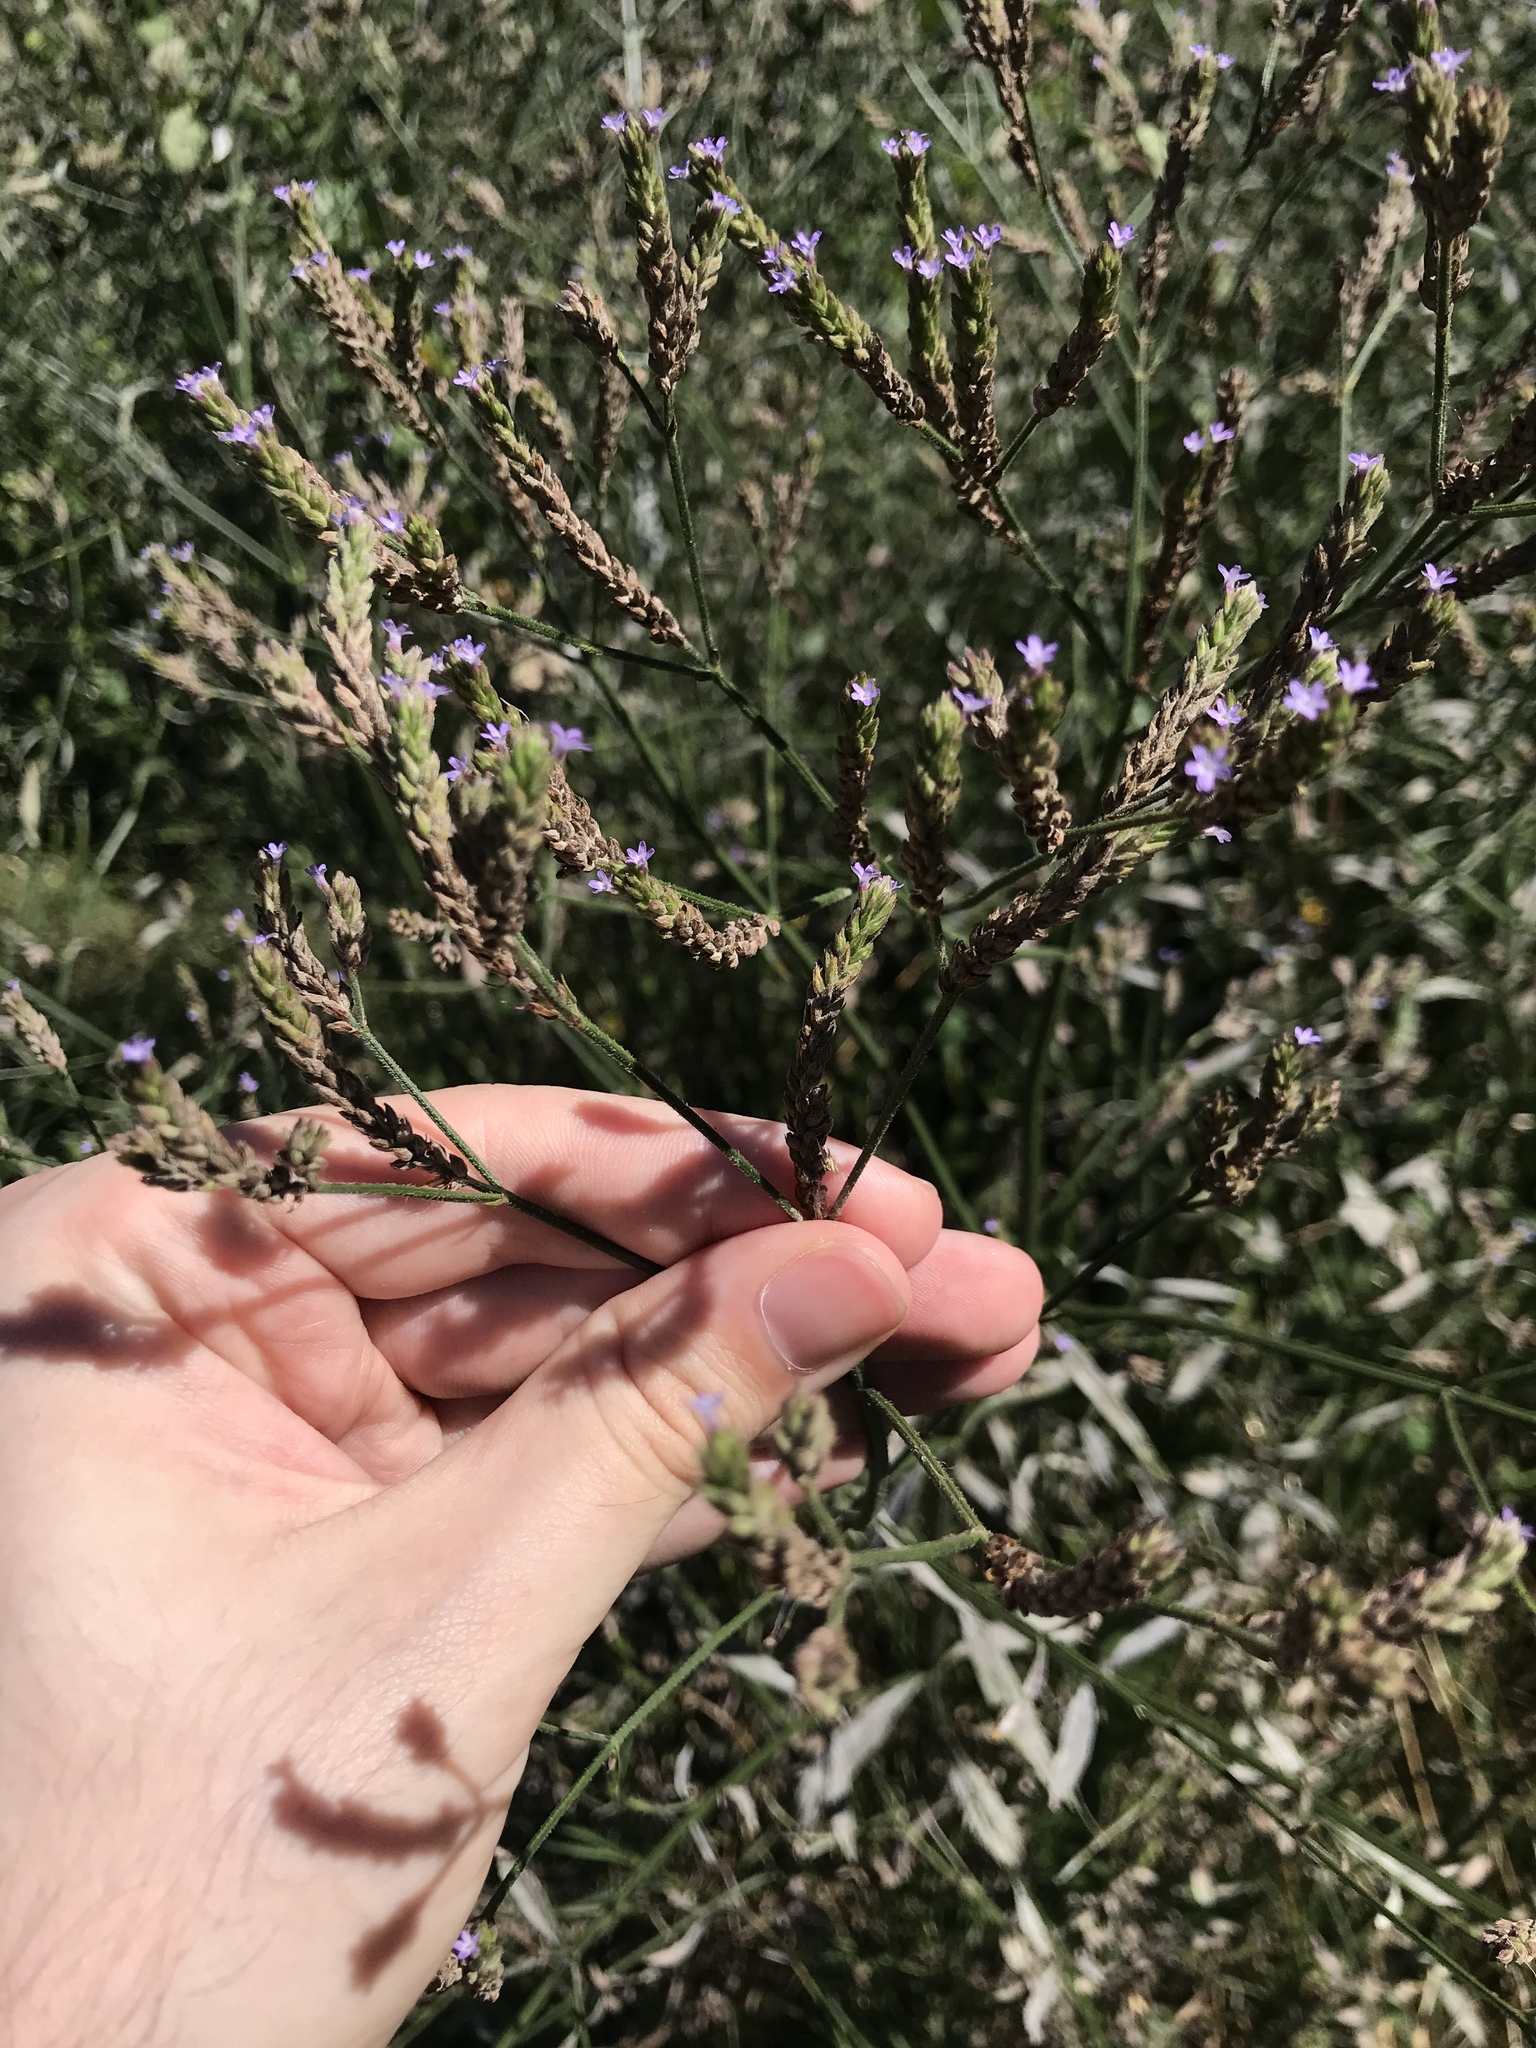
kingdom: Plantae
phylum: Tracheophyta
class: Magnoliopsida
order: Lamiales
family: Verbenaceae
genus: Verbena
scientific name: Verbena brasiliensis
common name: Brazilian vervain
